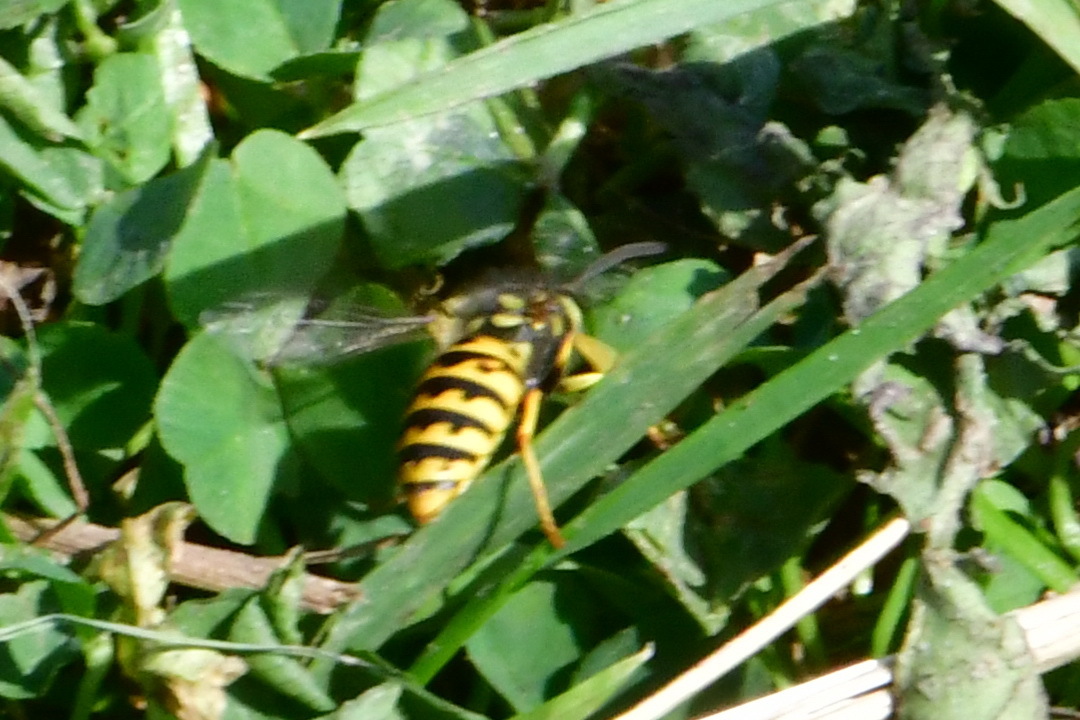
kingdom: Animalia
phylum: Arthropoda
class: Insecta
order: Hymenoptera
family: Vespidae
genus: Vespula
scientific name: Vespula germanica
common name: German wasp
